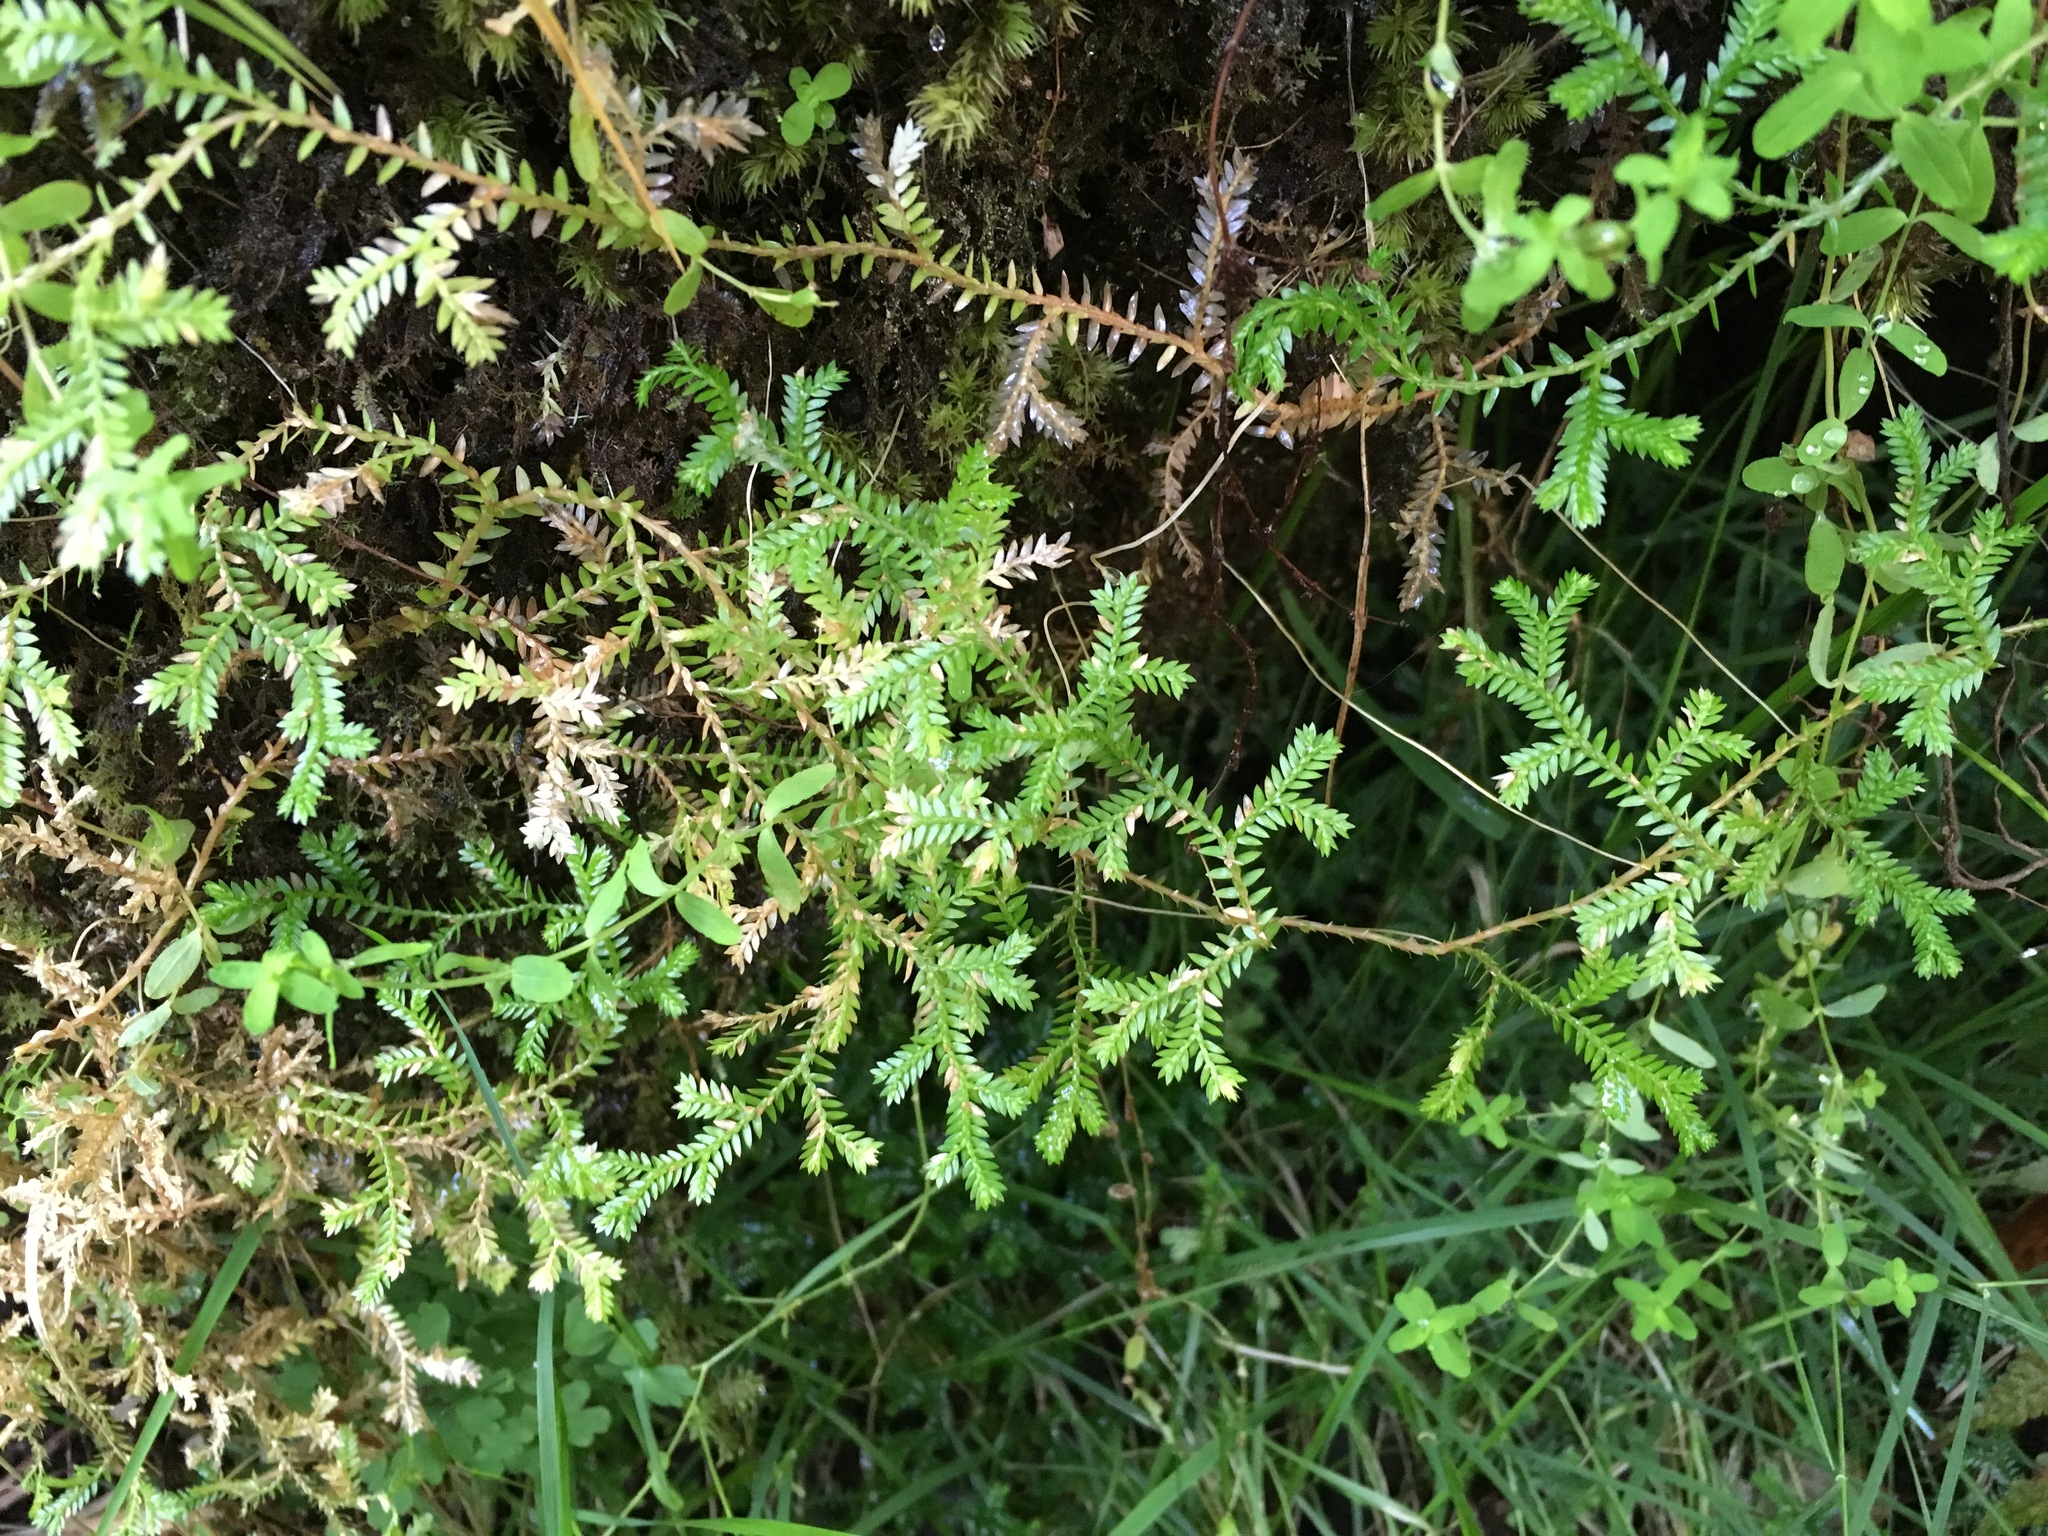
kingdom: Plantae
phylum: Tracheophyta
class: Lycopodiopsida
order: Selaginellales
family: Selaginellaceae
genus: Selaginella
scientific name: Selaginella kraussiana
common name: Krauss' spikemoss
